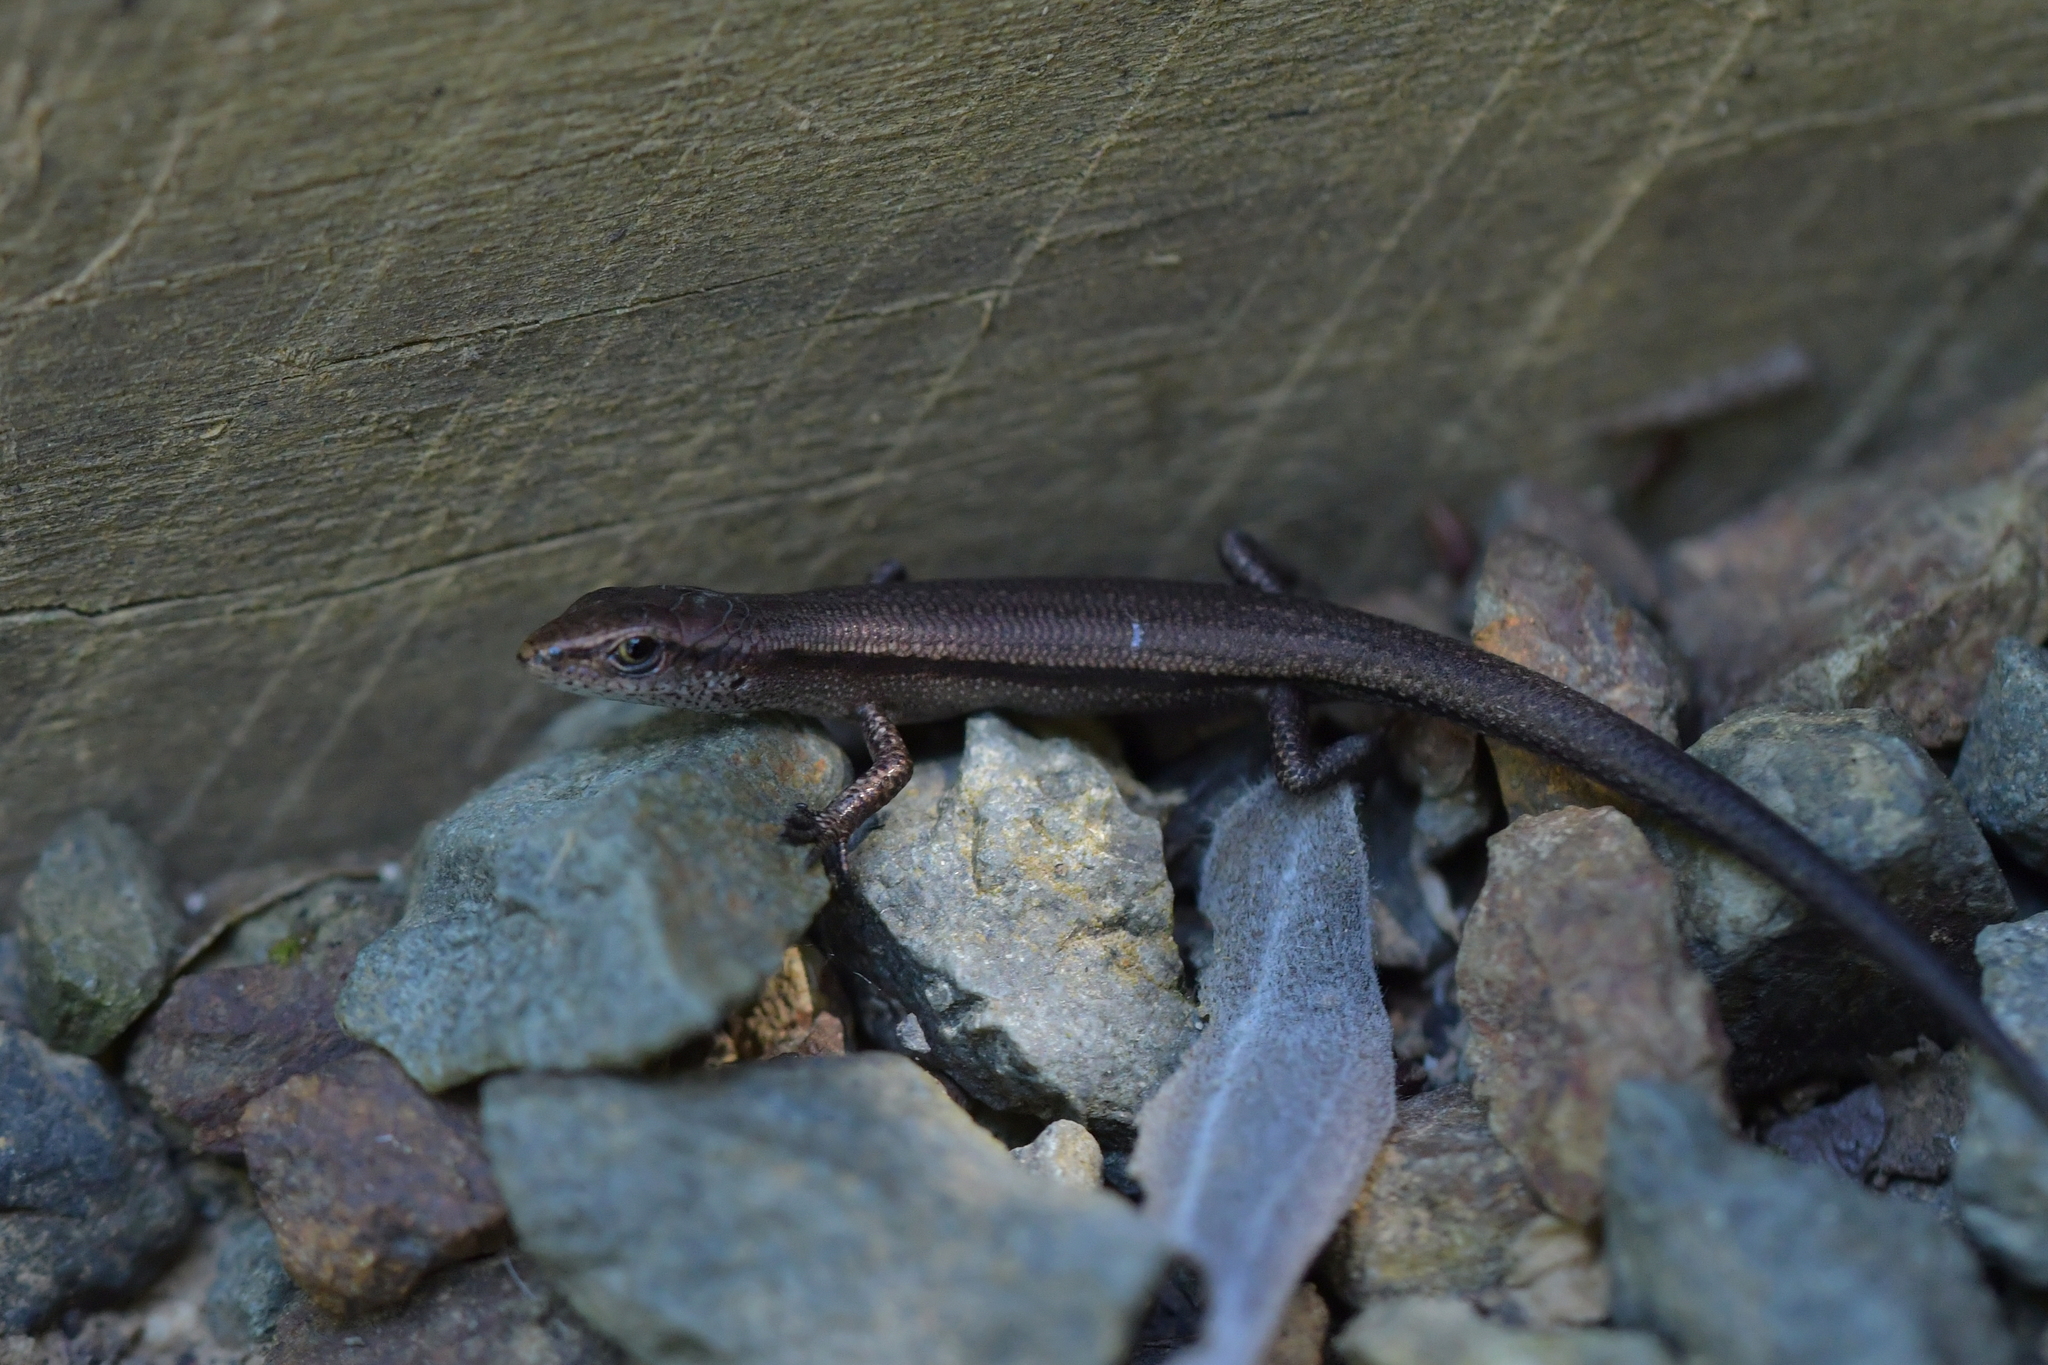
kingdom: Animalia
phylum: Chordata
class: Squamata
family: Scincidae
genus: Lampropholis
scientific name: Lampropholis delicata
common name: Plague skink
